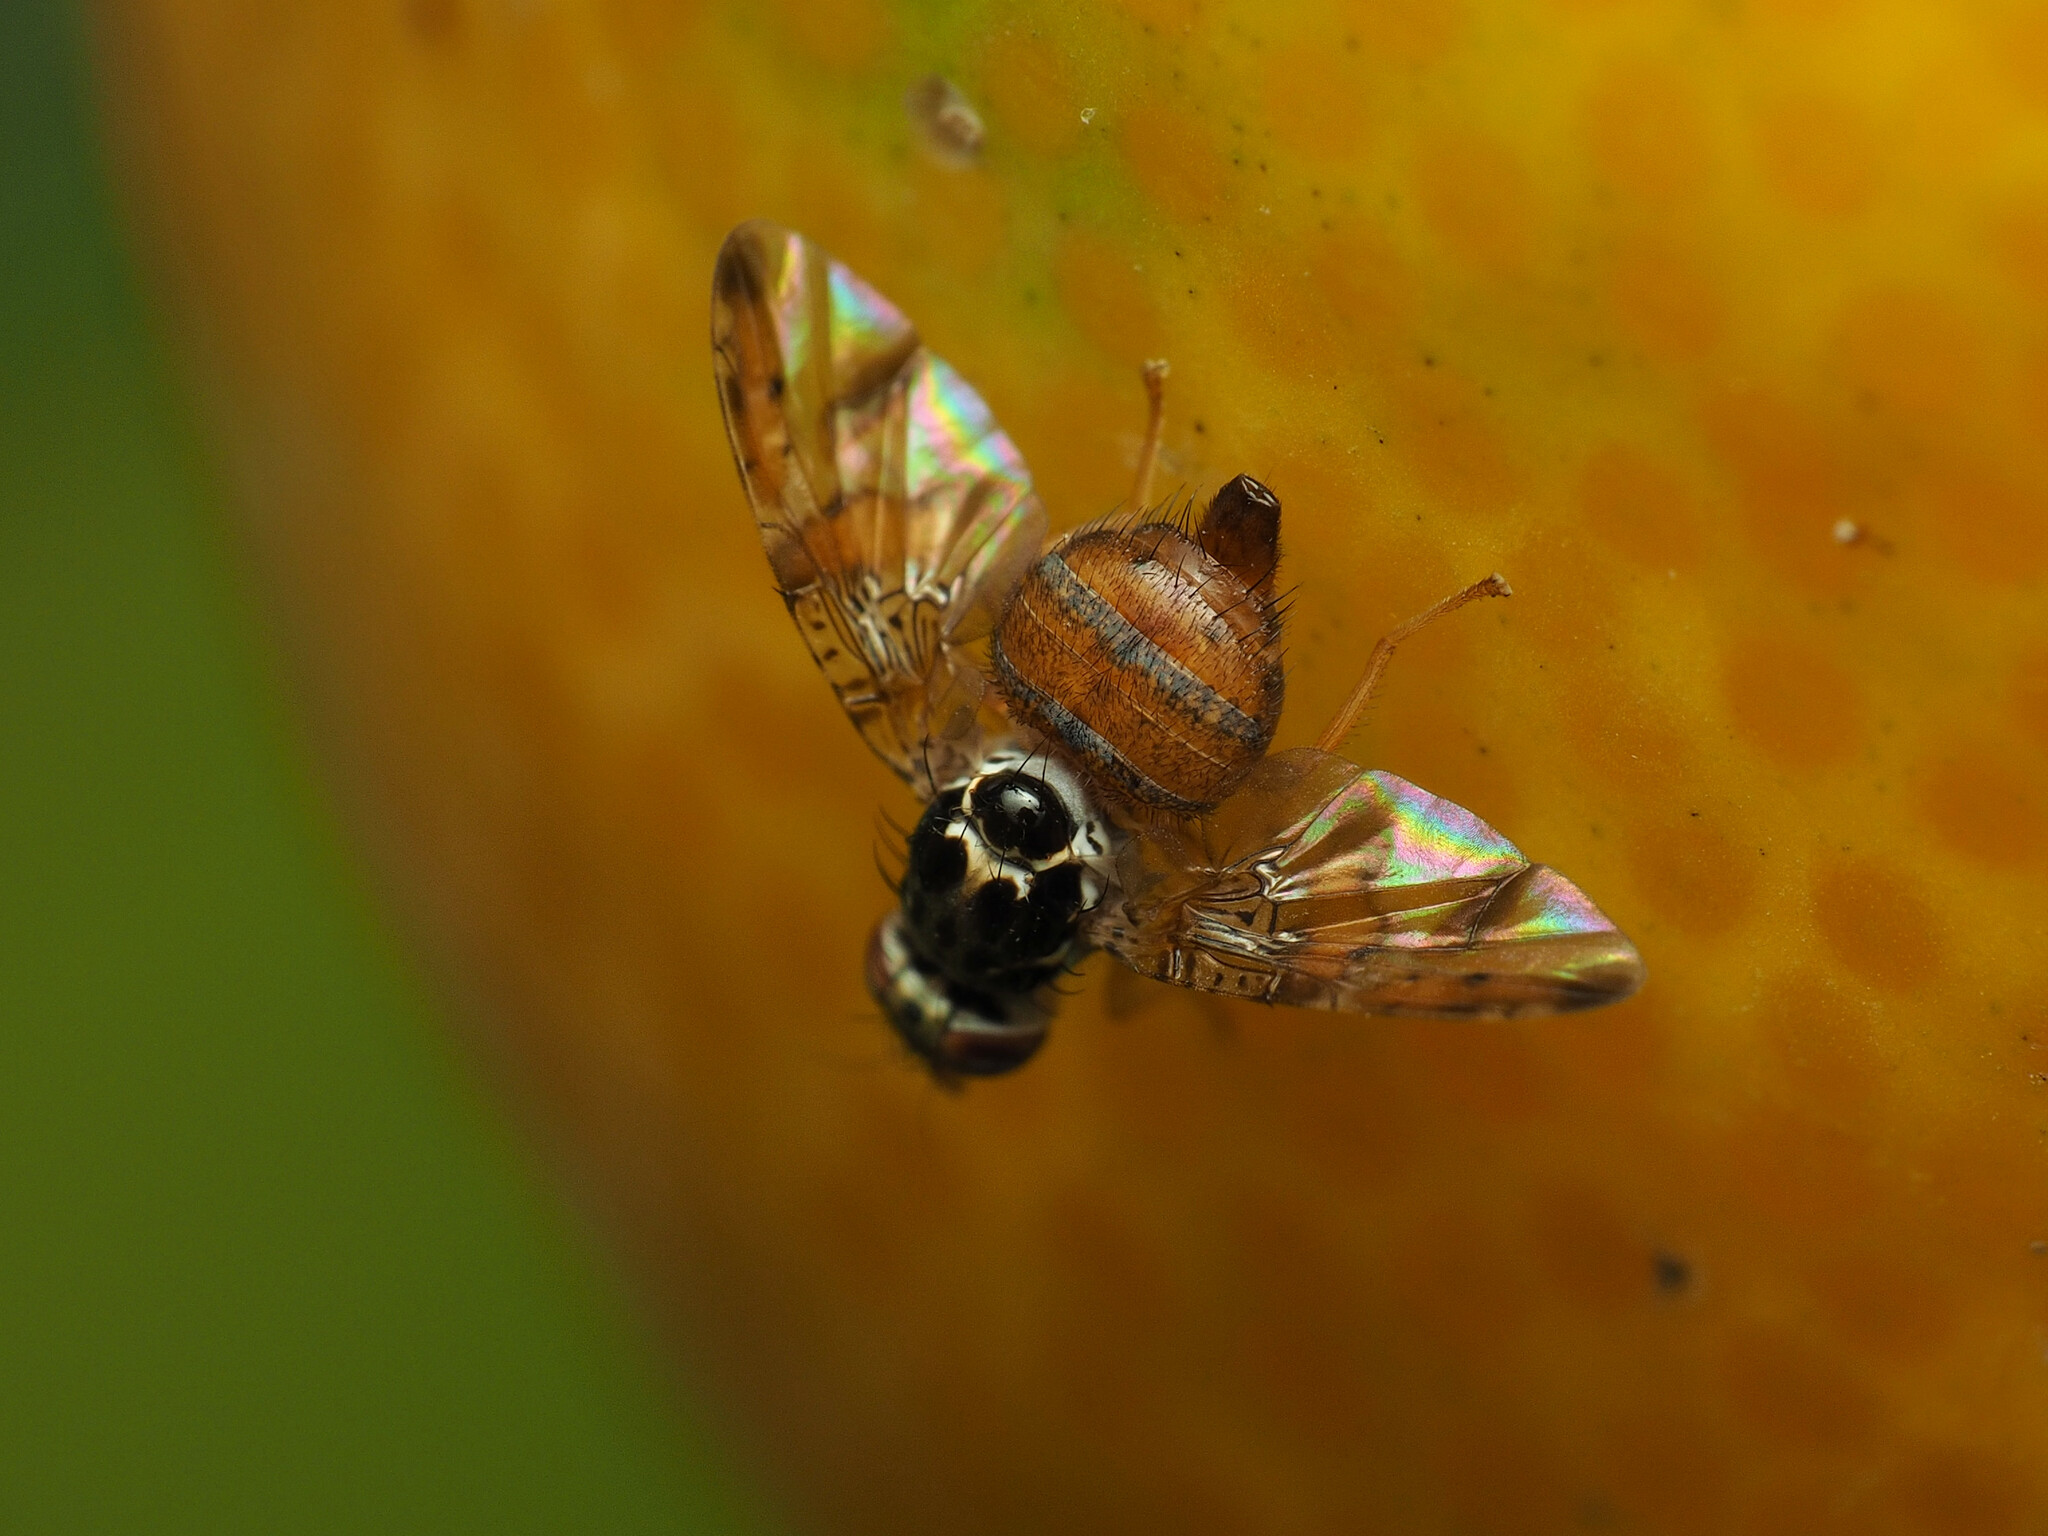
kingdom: Animalia
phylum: Arthropoda
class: Insecta
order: Diptera
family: Tephritidae
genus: Ceratitis
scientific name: Ceratitis capitata
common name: Mediterranean fruit fly
